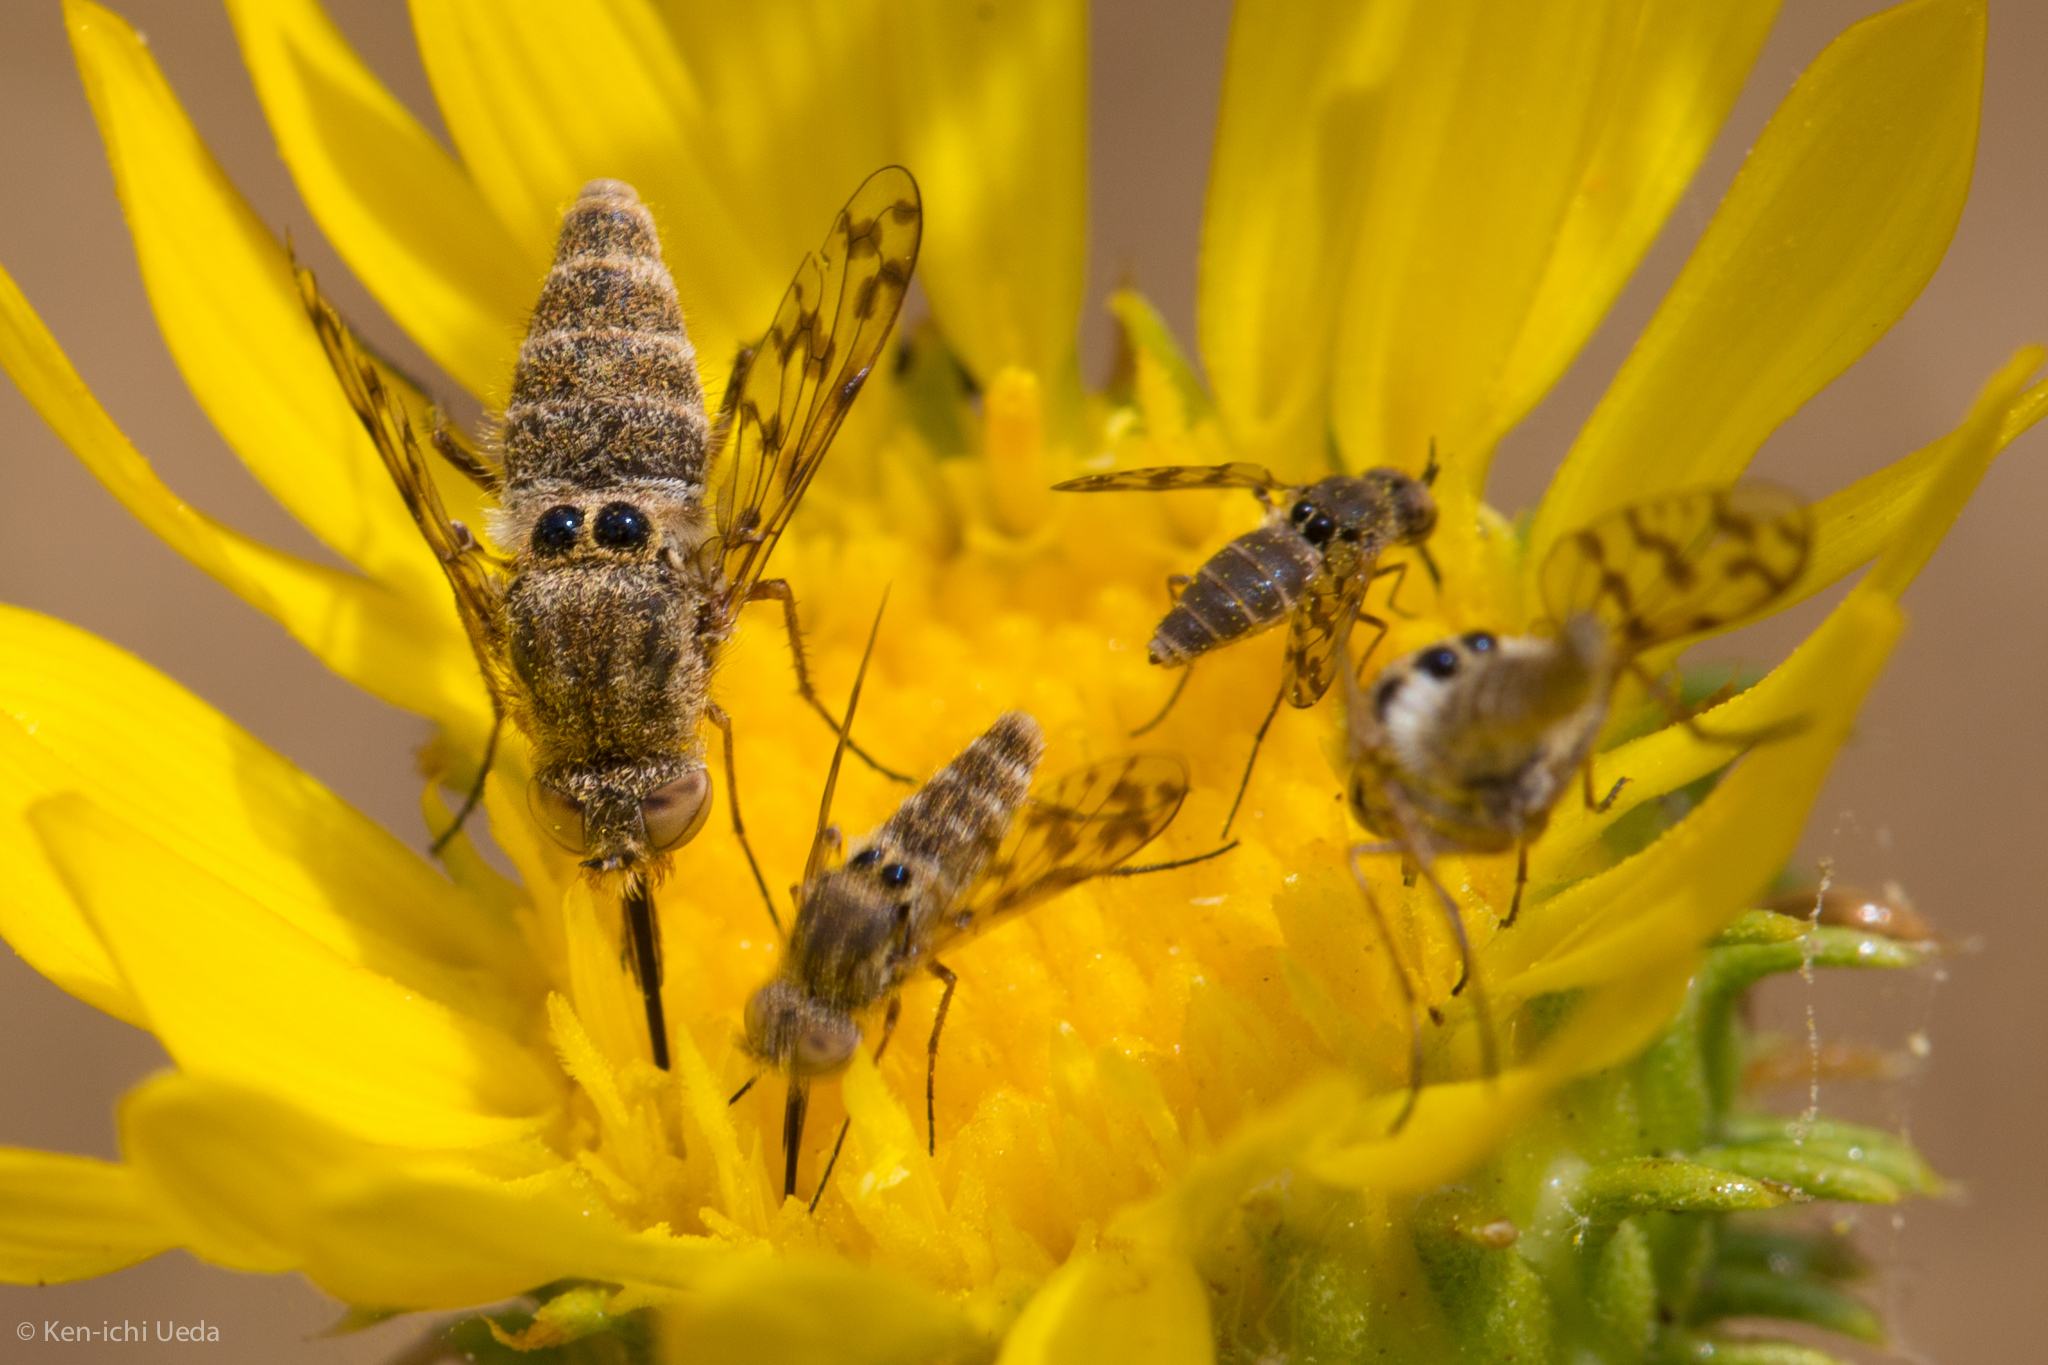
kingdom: Animalia
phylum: Arthropoda
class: Insecta
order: Diptera
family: Bombyliidae
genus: Geminaria
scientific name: Geminaria canalis
